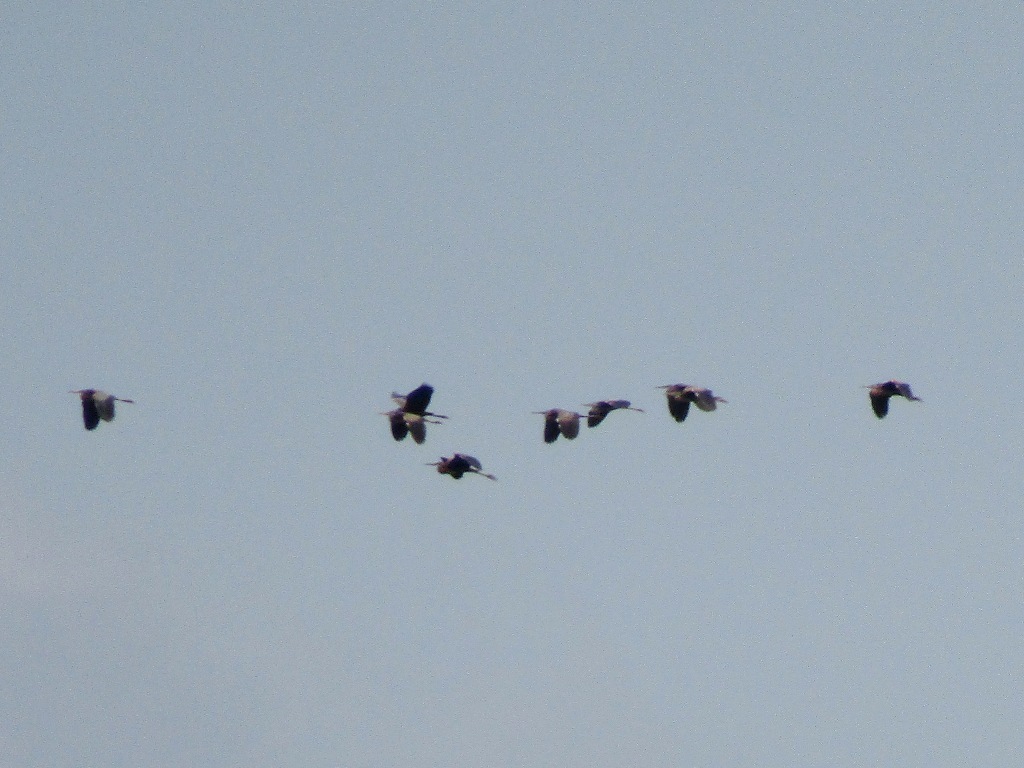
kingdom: Animalia
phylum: Chordata
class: Aves
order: Pelecaniformes
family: Ardeidae
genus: Ardea
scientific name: Ardea purpurea
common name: Purple heron
